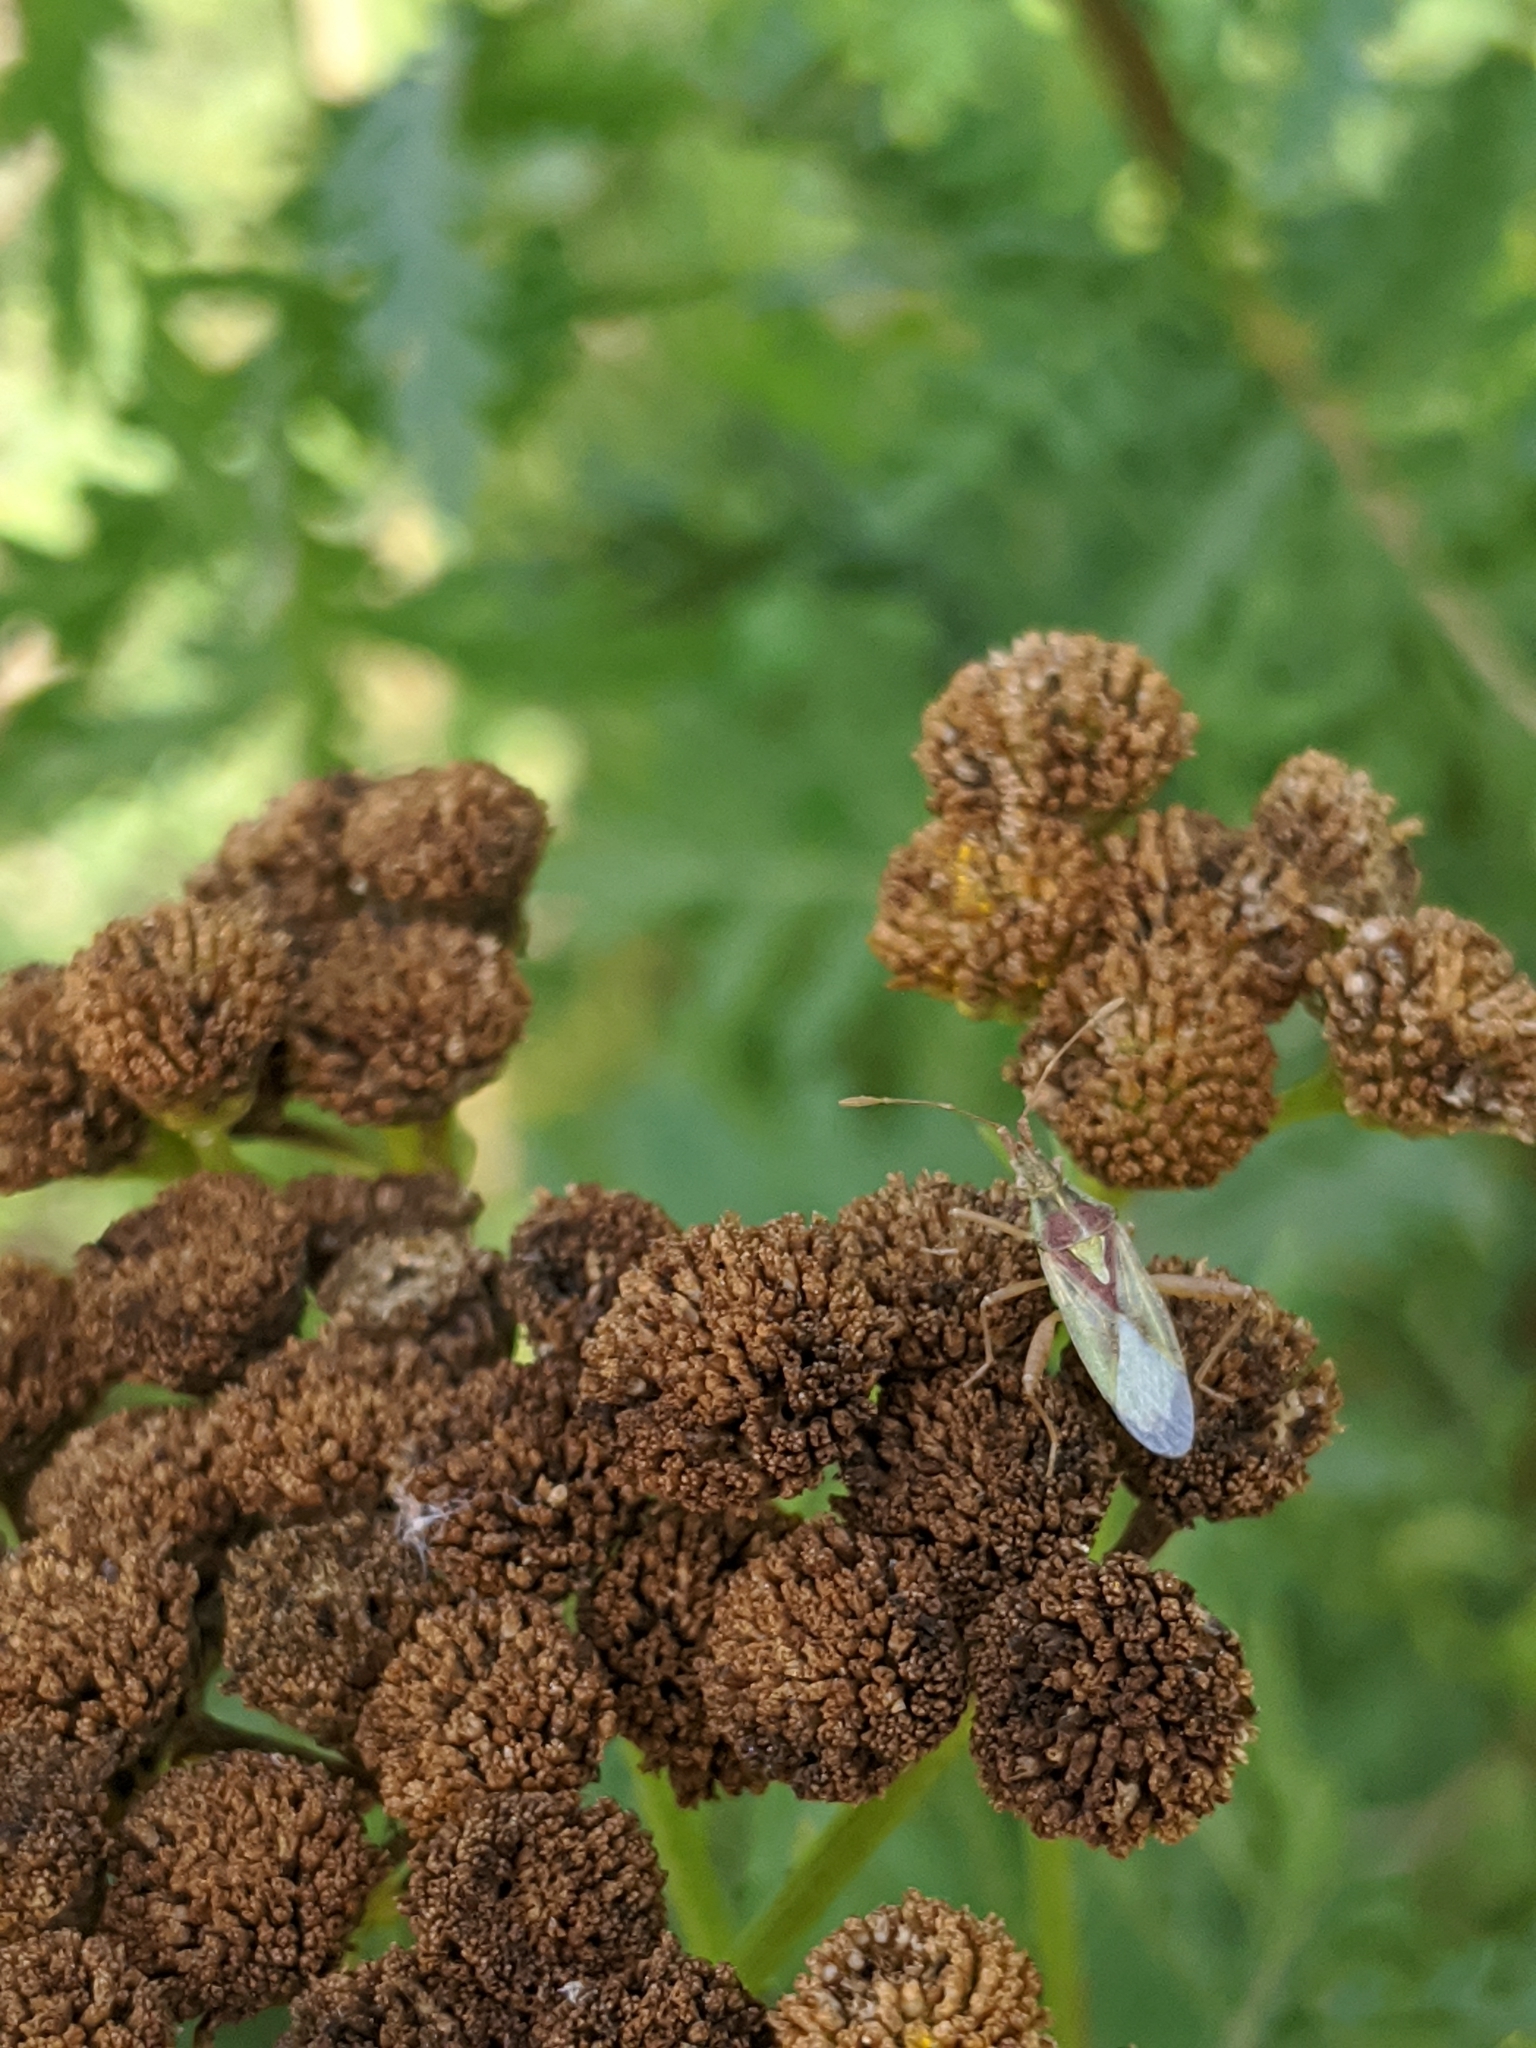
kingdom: Animalia
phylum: Arthropoda
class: Insecta
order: Hemiptera
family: Rhopalidae
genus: Harmostes
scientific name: Harmostes reflexulus
